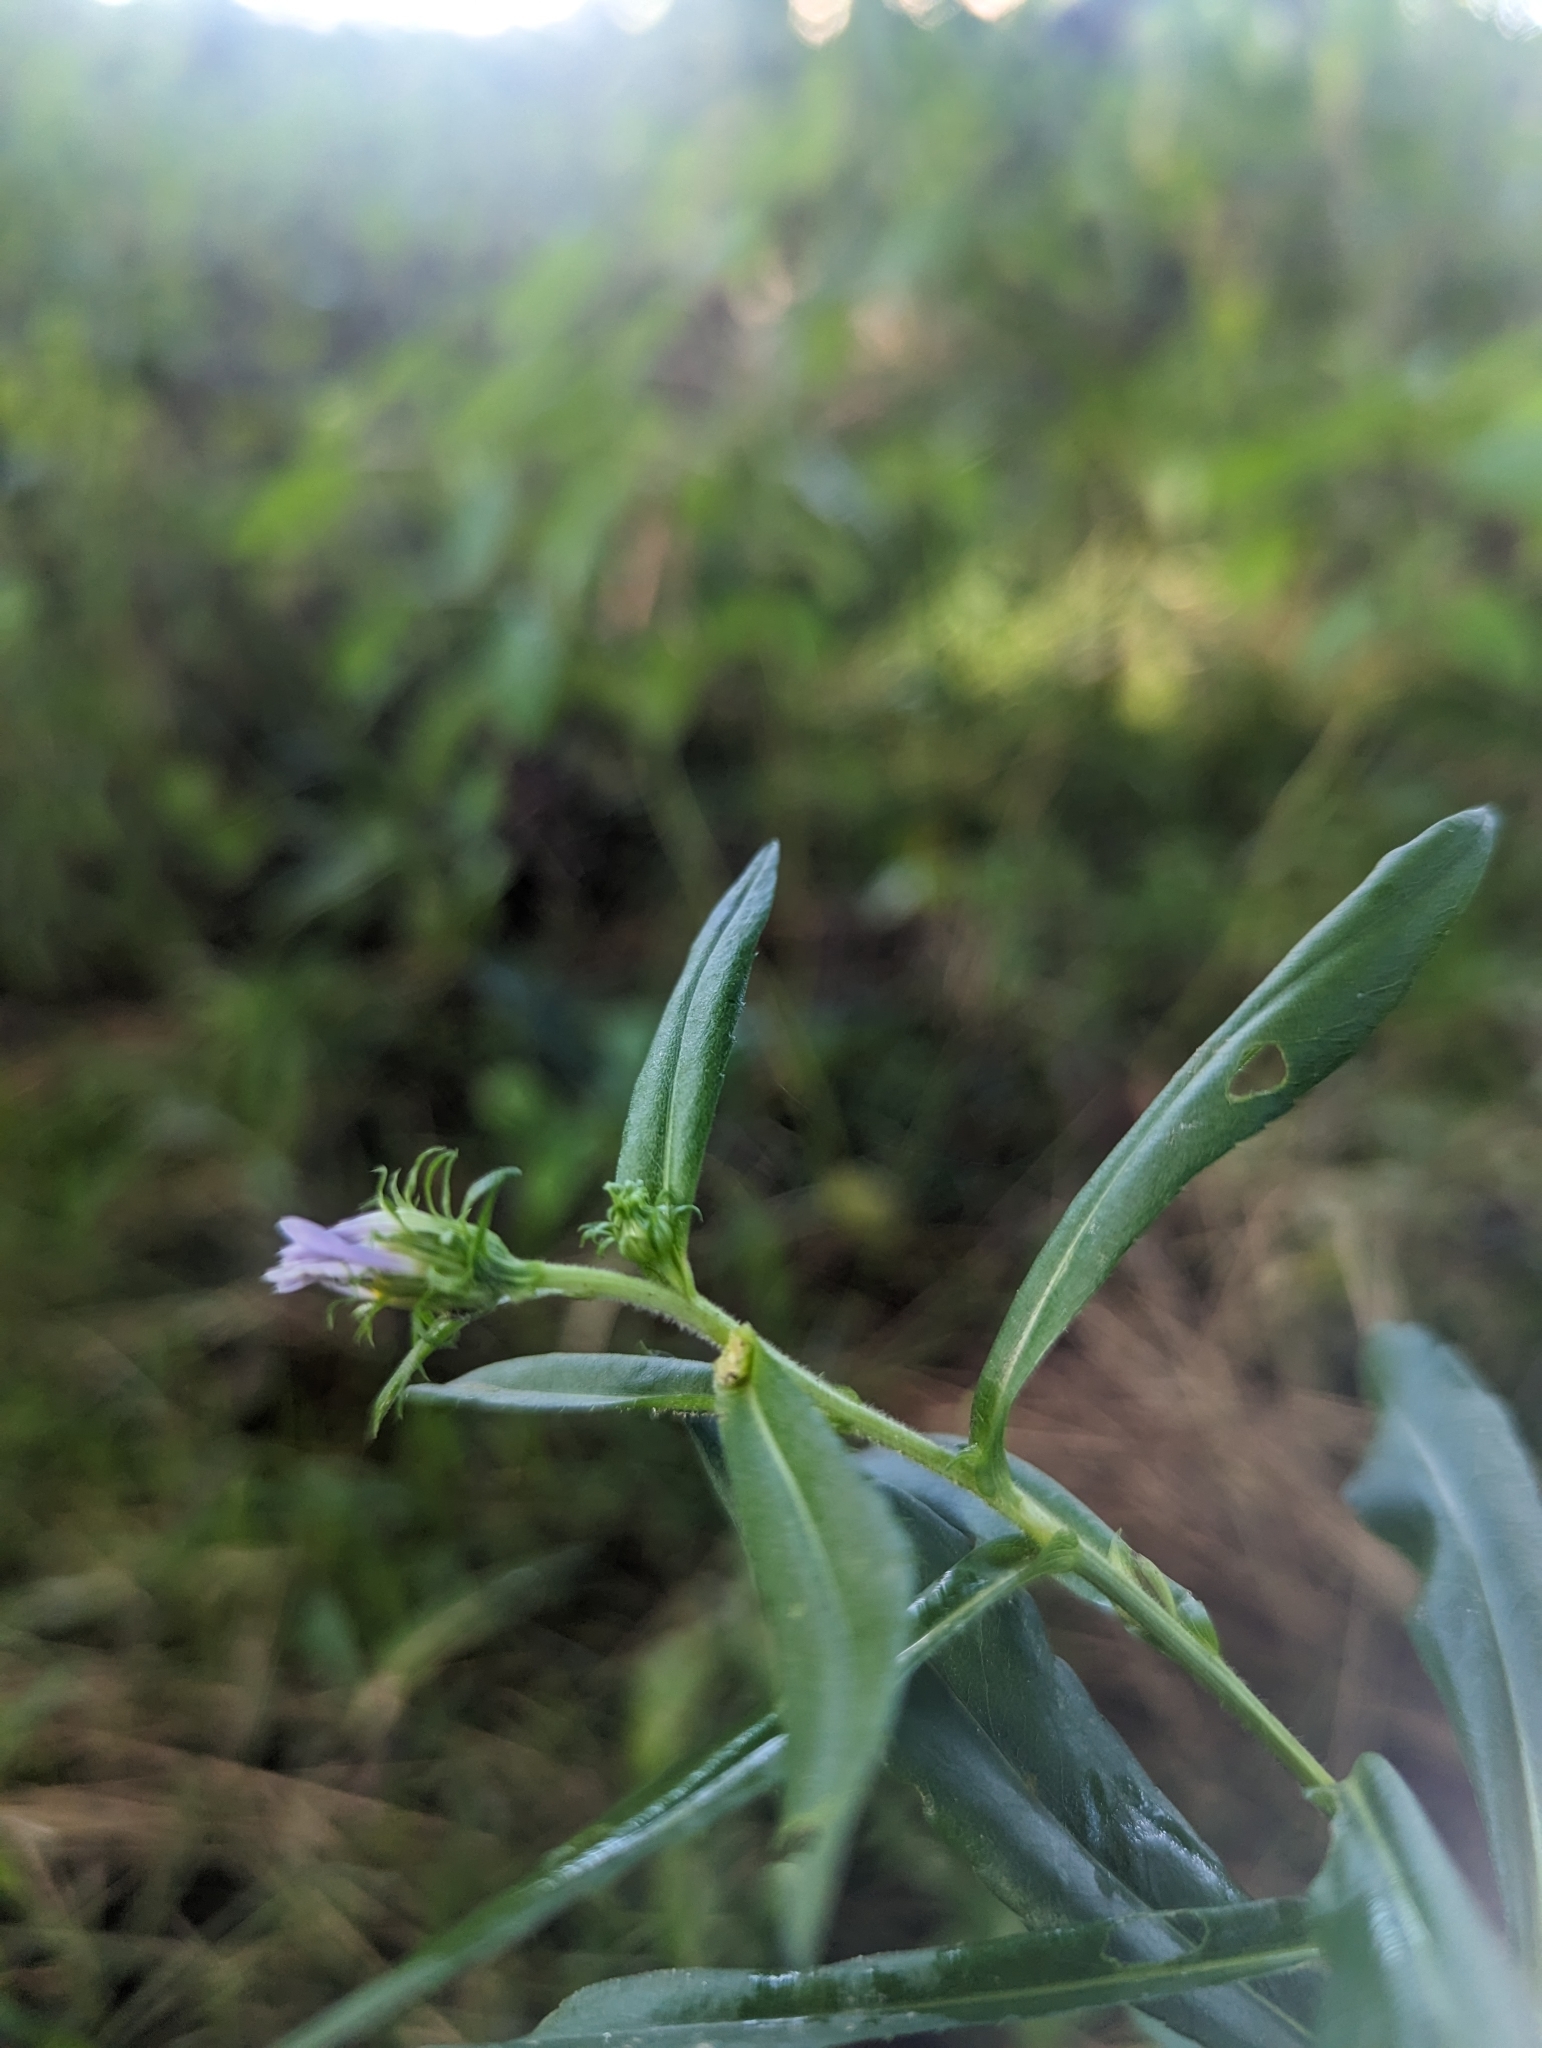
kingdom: Plantae
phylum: Tracheophyta
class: Magnoliopsida
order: Asterales
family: Asteraceae
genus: Symphyotrichum
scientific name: Symphyotrichum puniceum
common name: Bog aster
